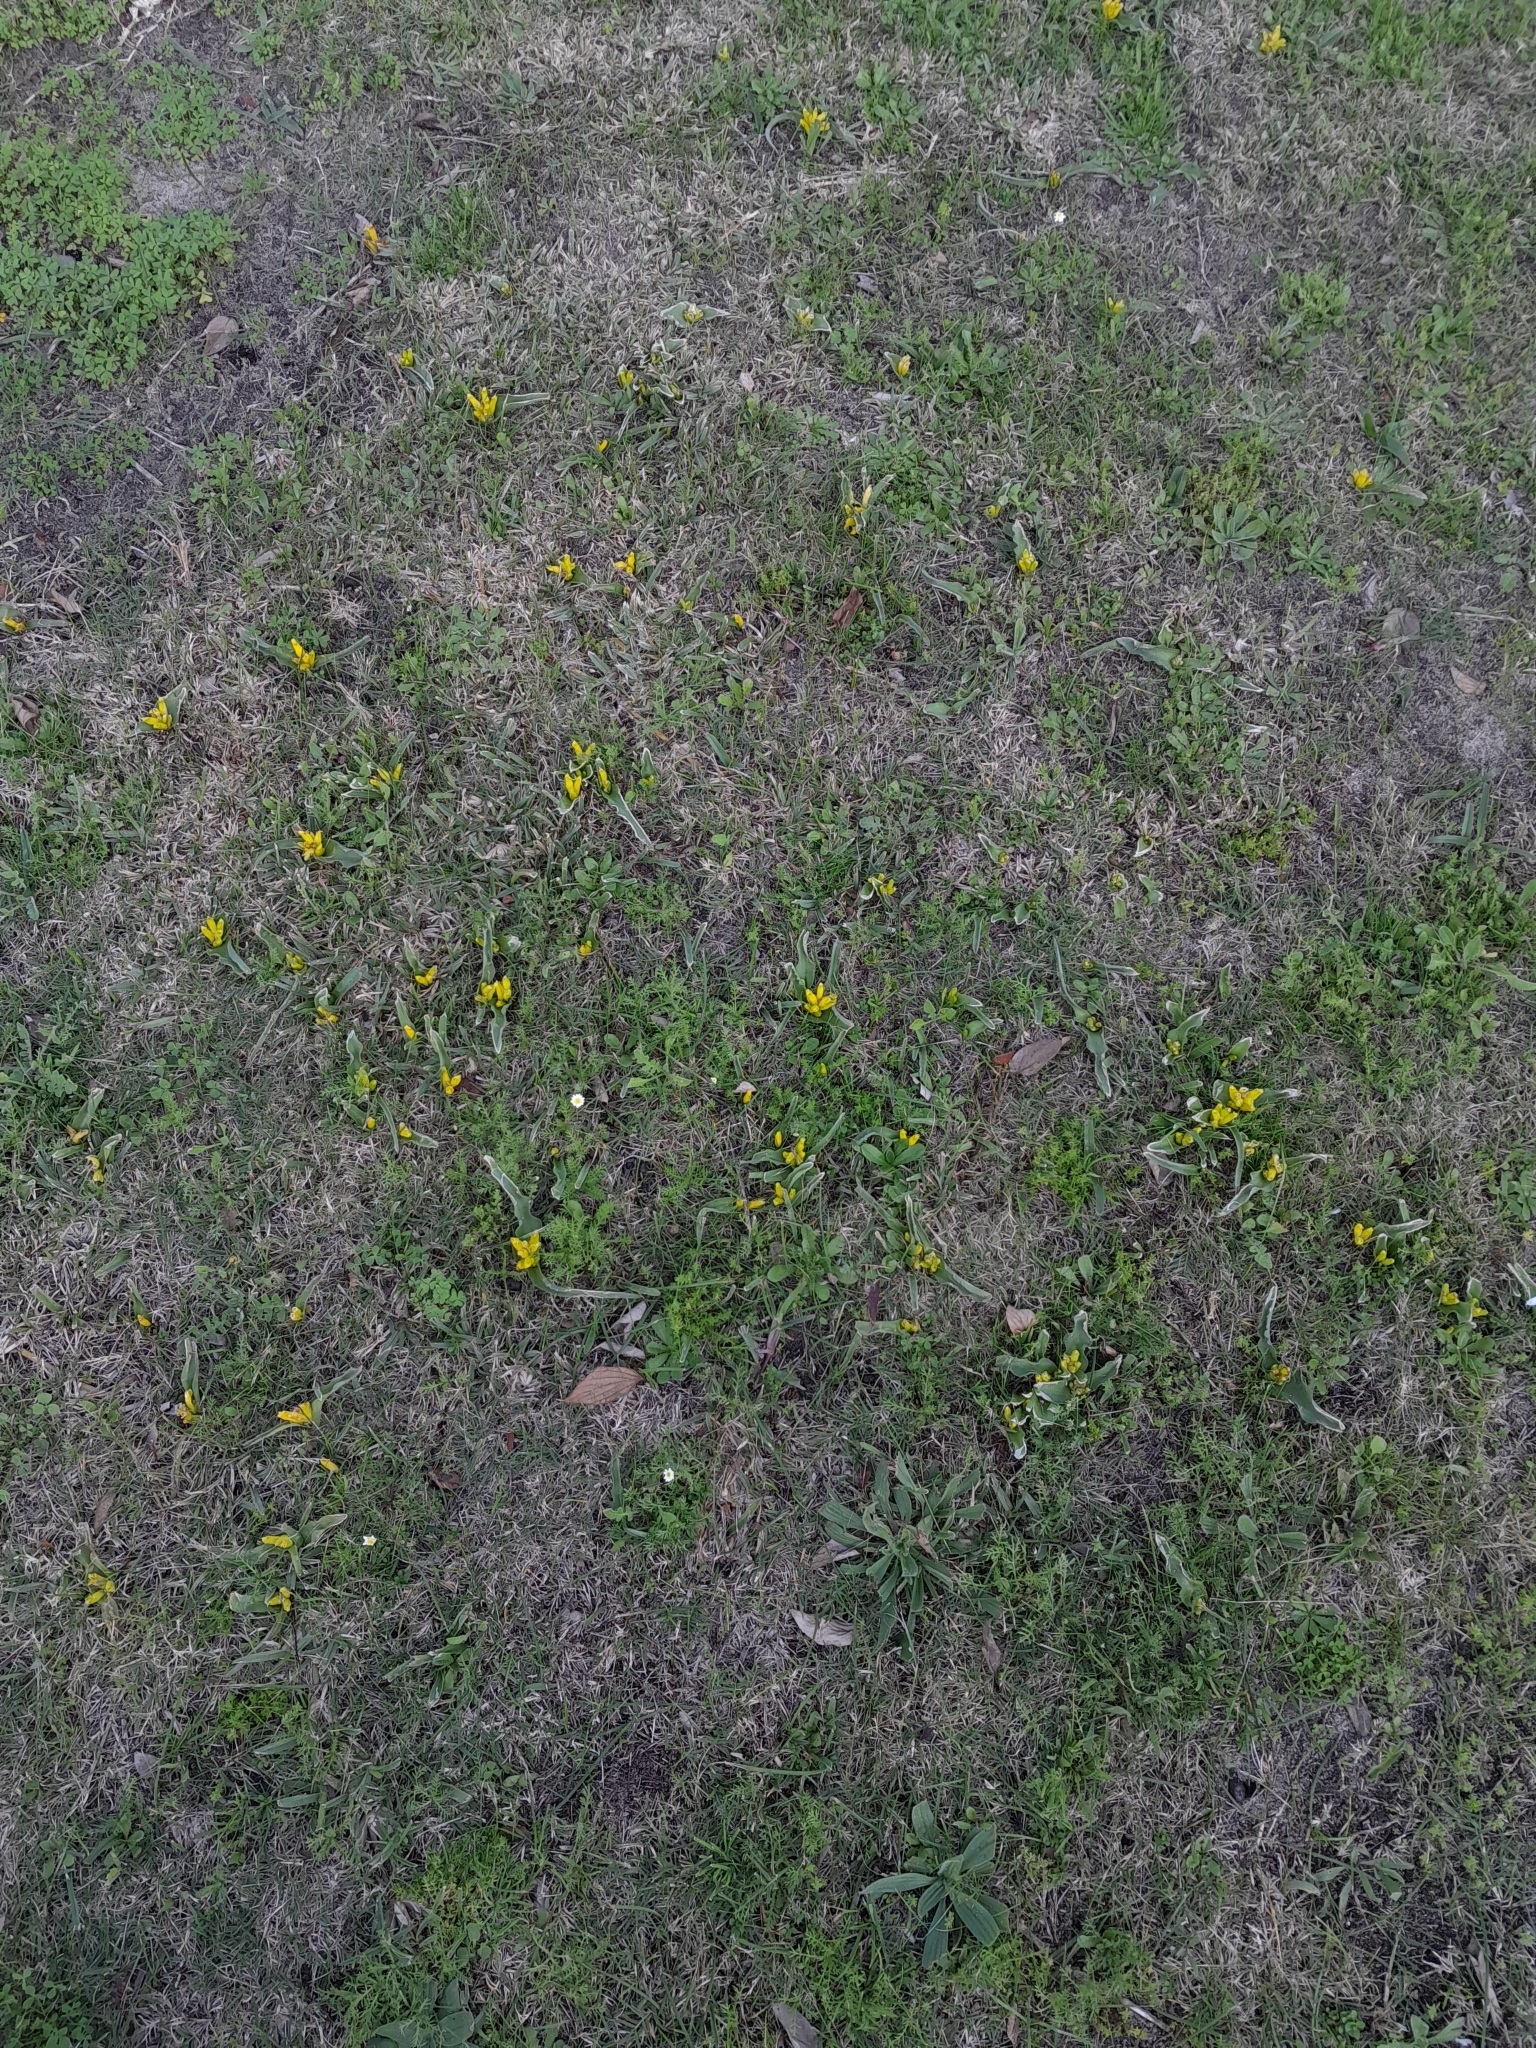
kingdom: Plantae
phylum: Tracheophyta
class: Liliopsida
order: Asparagales
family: Asparagaceae
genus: Lachenalia
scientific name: Lachenalia reflexa
